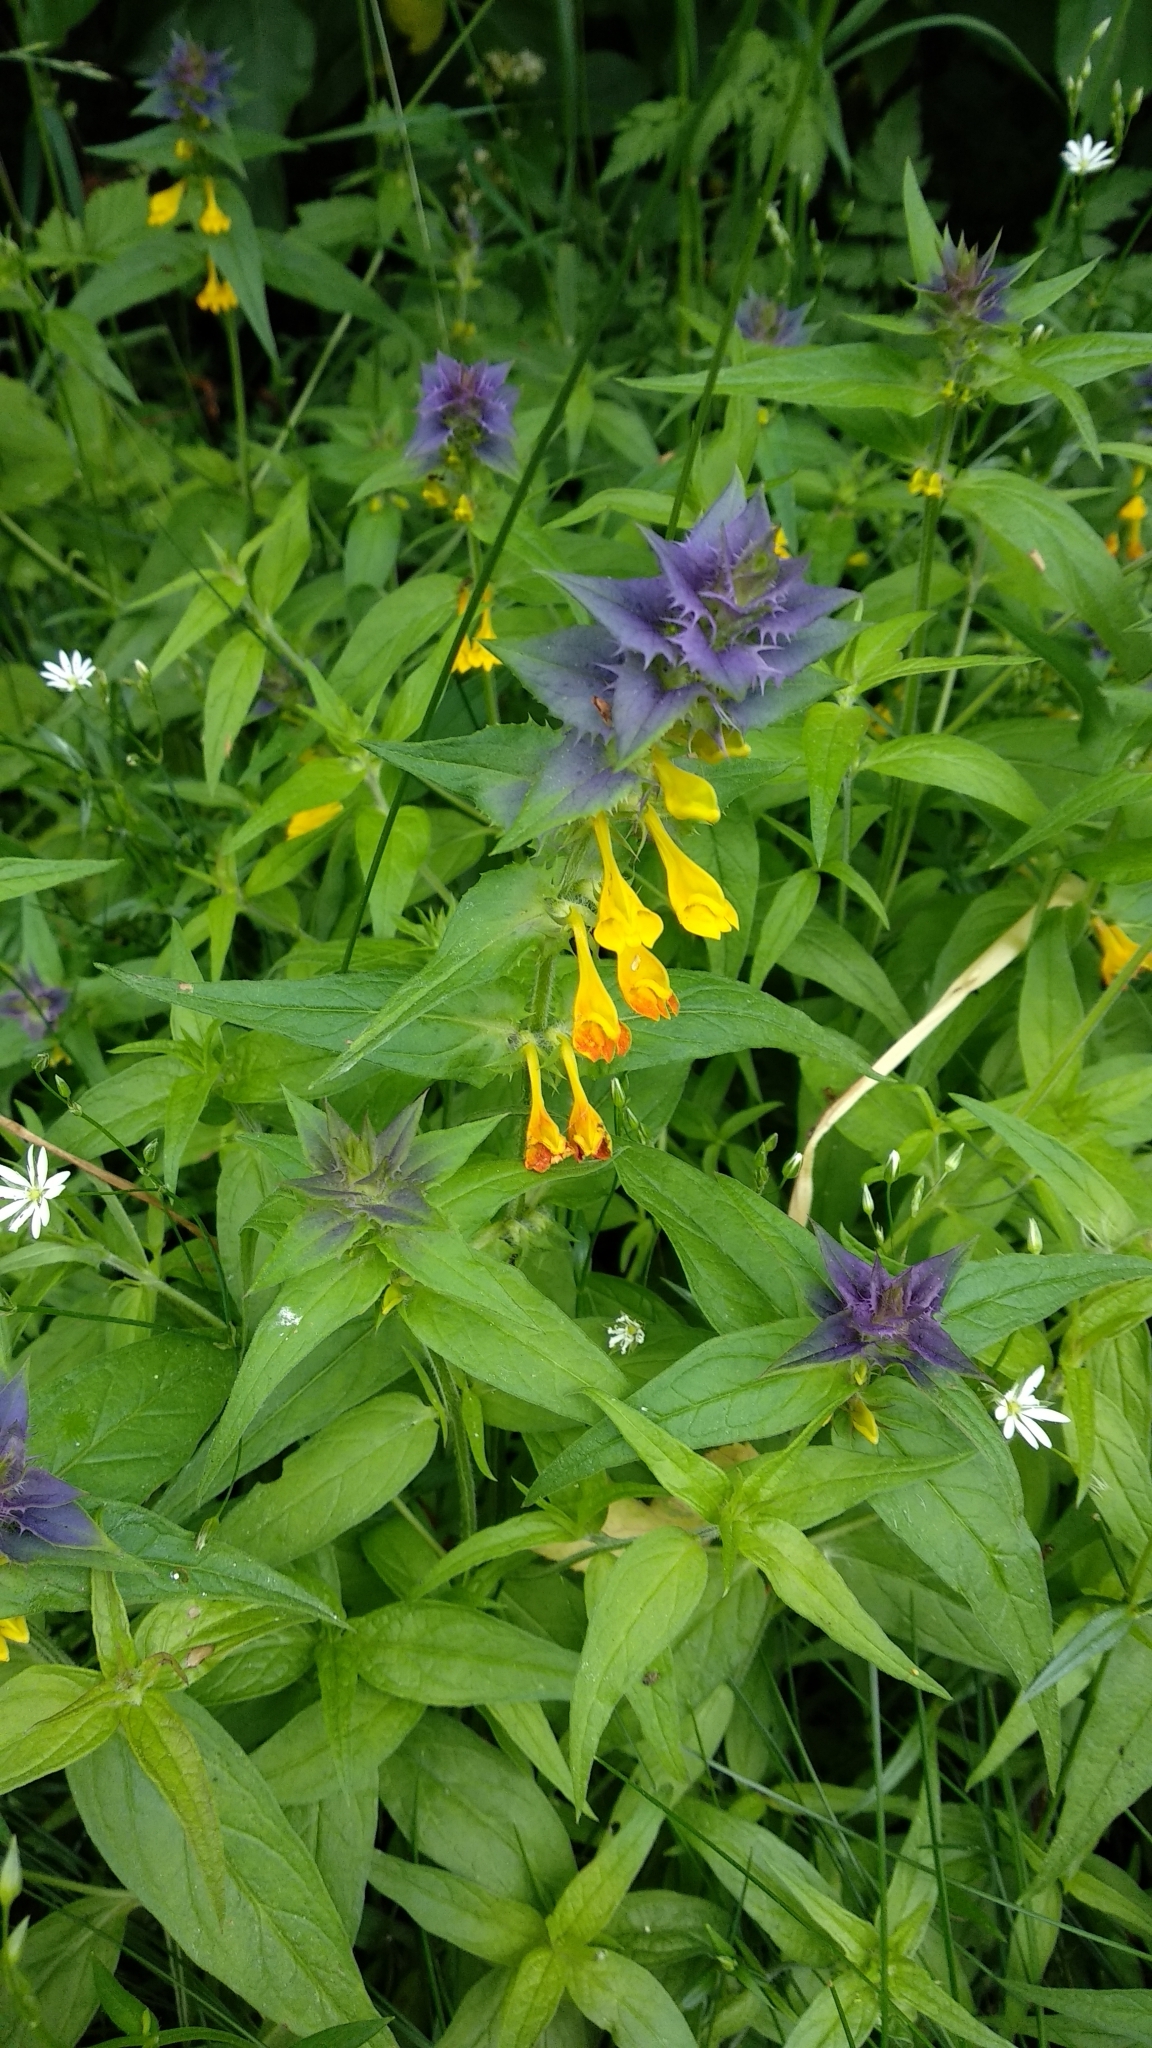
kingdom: Plantae
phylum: Tracheophyta
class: Magnoliopsida
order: Lamiales
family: Orobanchaceae
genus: Melampyrum
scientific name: Melampyrum nemorosum
